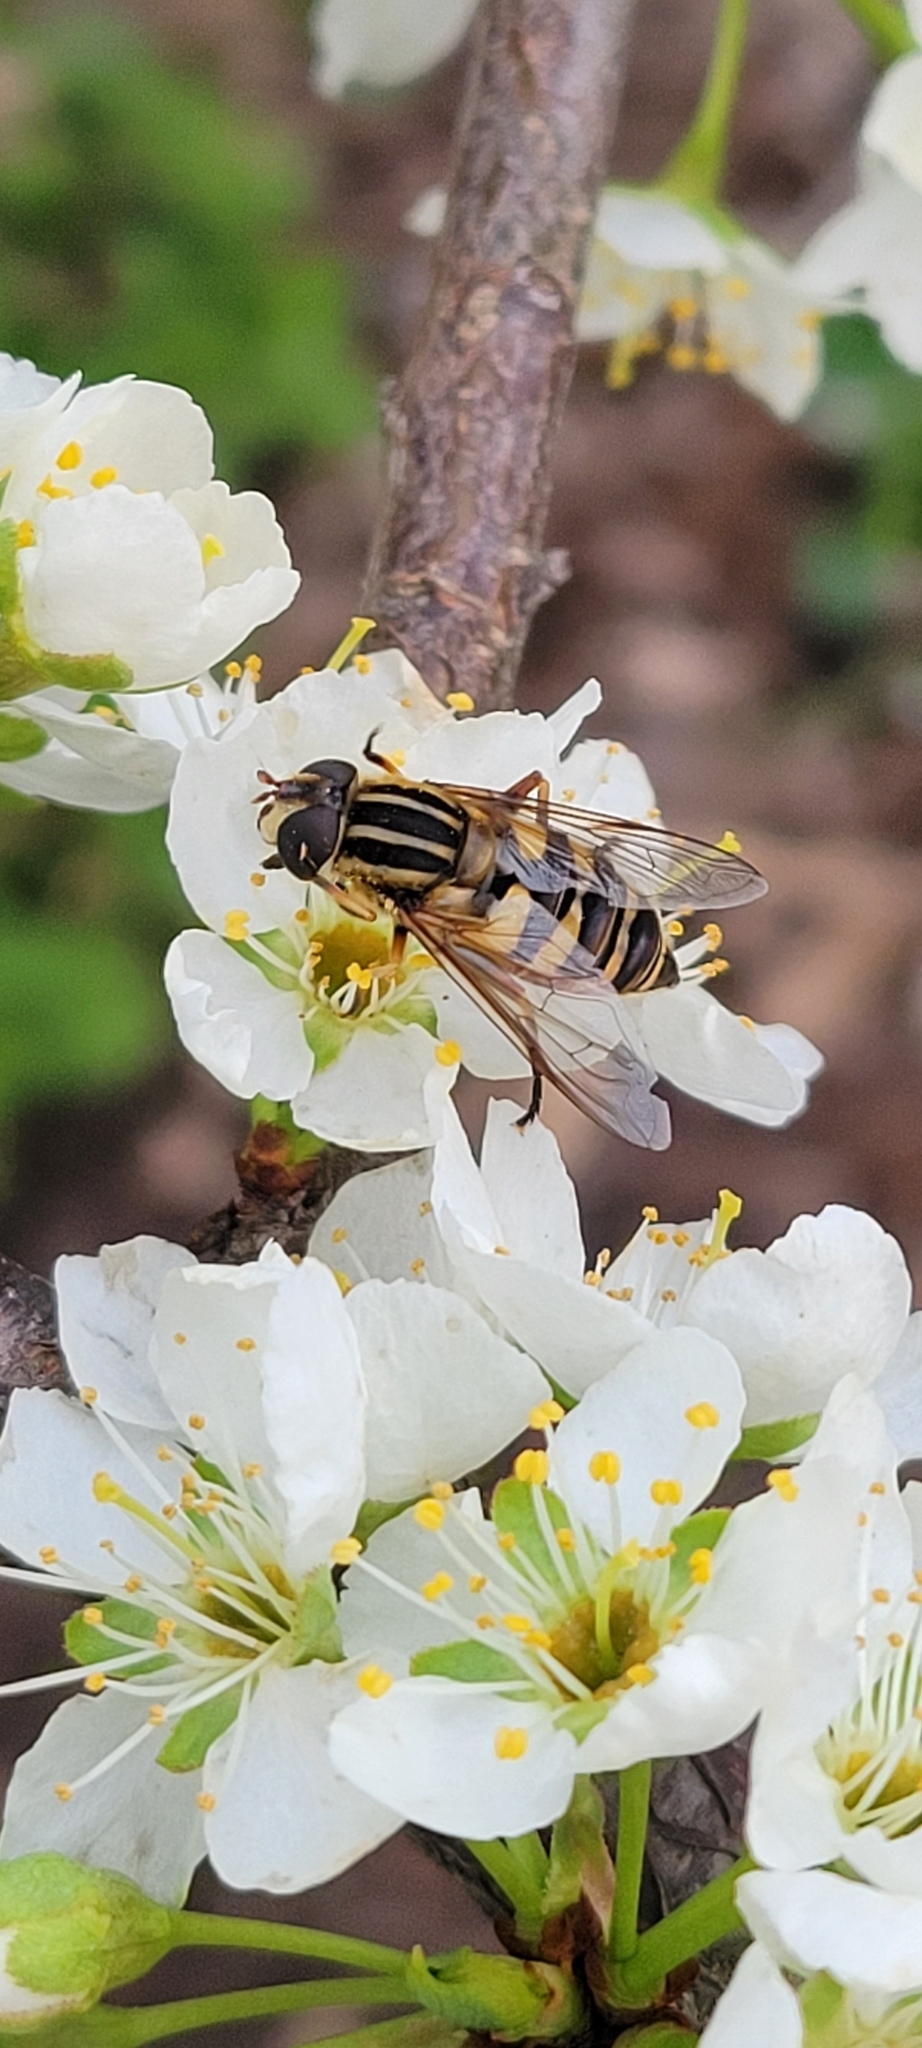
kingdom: Animalia
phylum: Arthropoda
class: Insecta
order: Diptera
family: Syrphidae
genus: Helophilus
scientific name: Helophilus fasciatus
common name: Narrow-headed marsh fly
